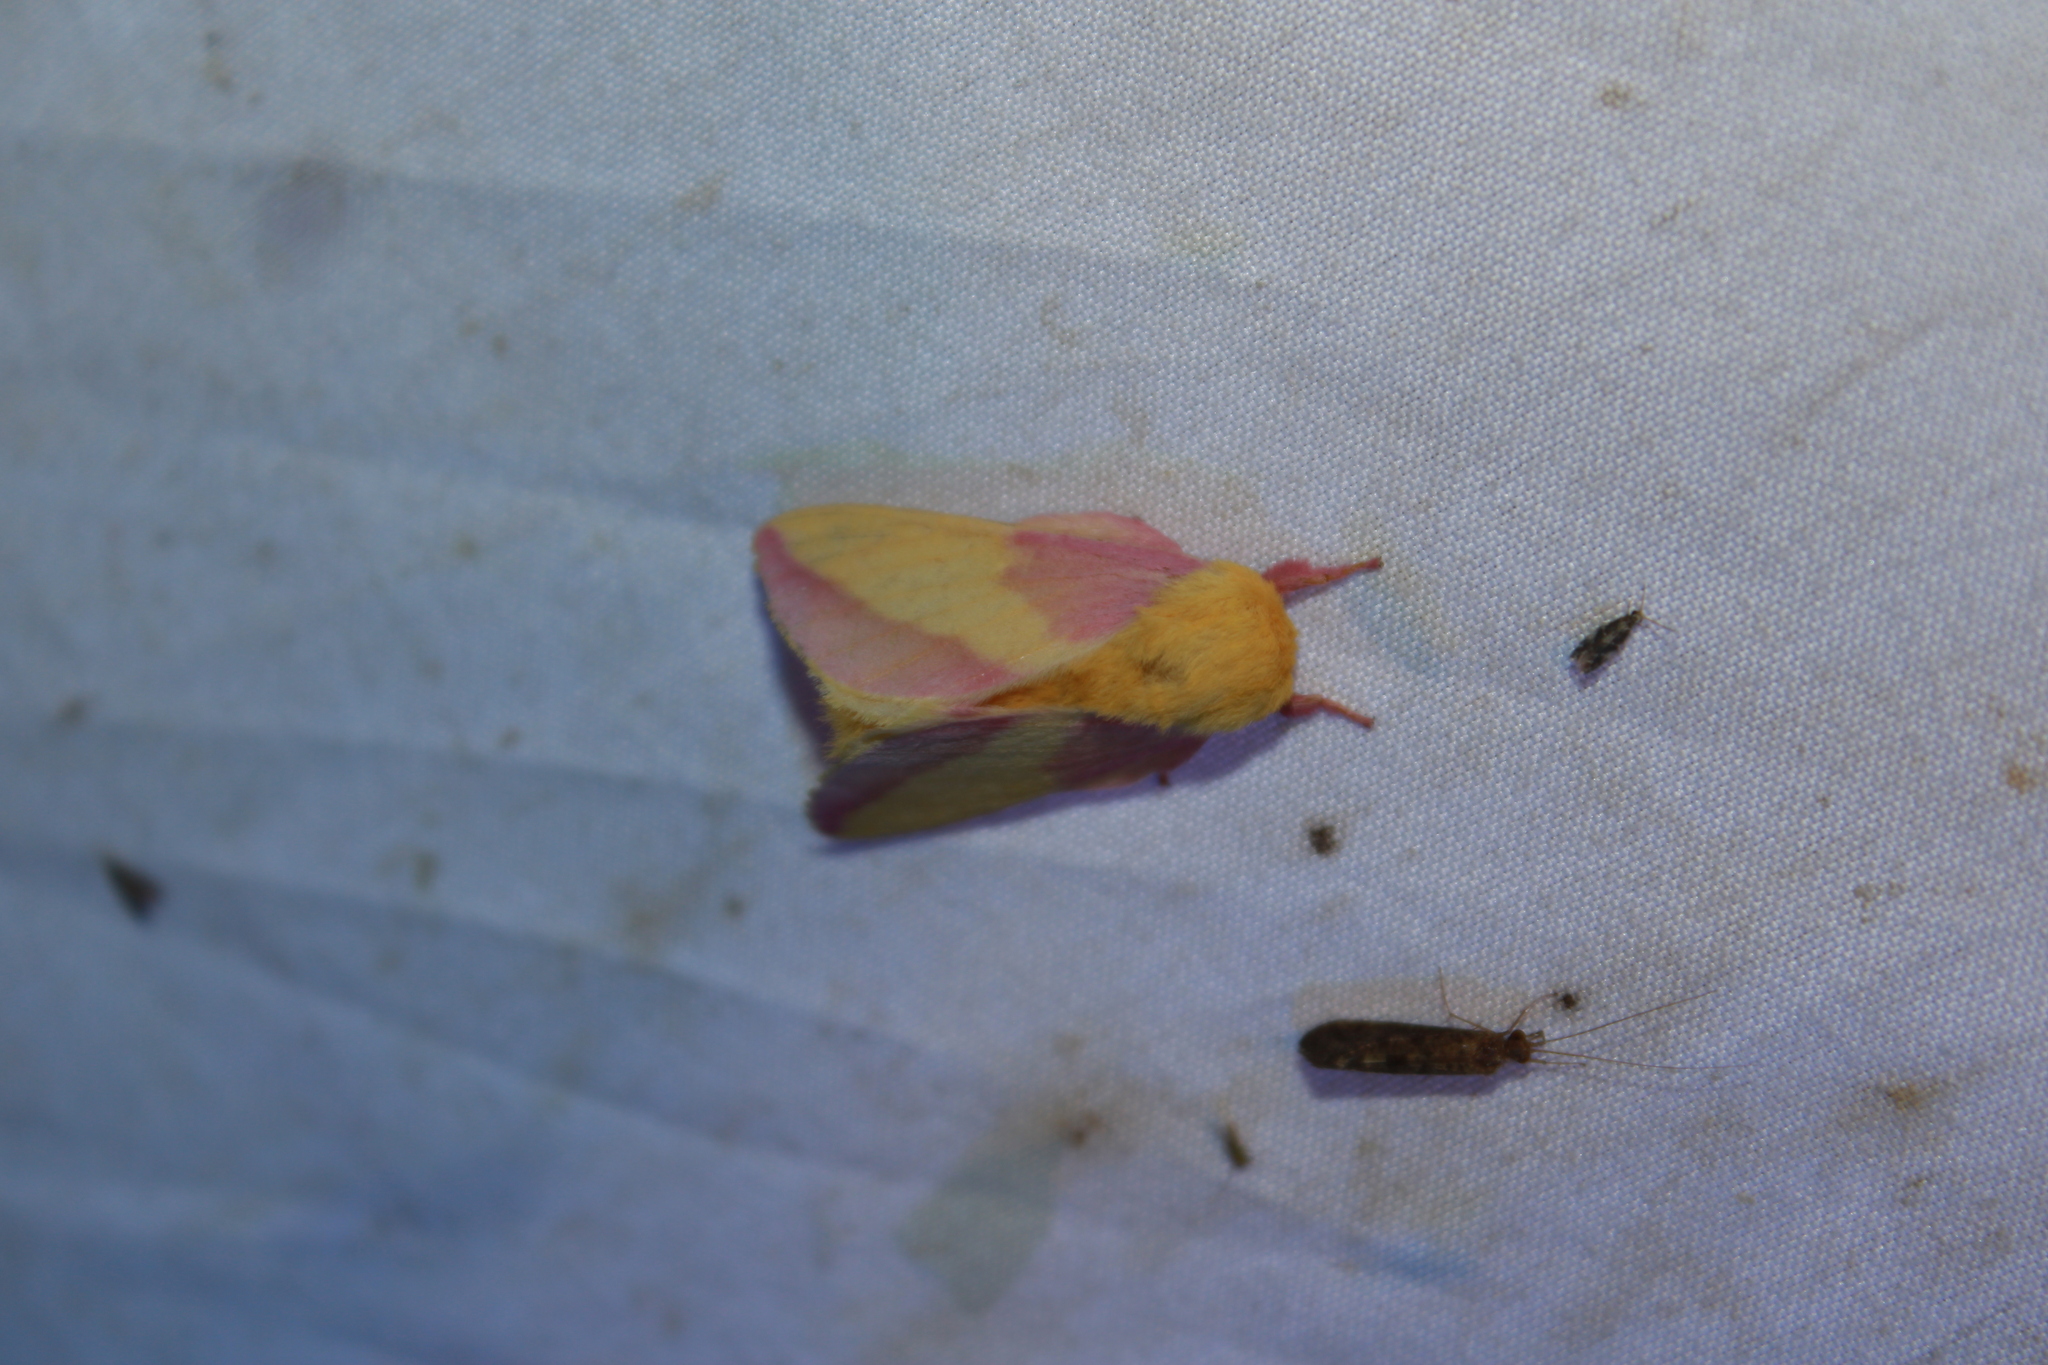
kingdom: Animalia
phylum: Arthropoda
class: Insecta
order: Lepidoptera
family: Saturniidae
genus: Dryocampa
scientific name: Dryocampa rubicunda
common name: Rosy maple moth
